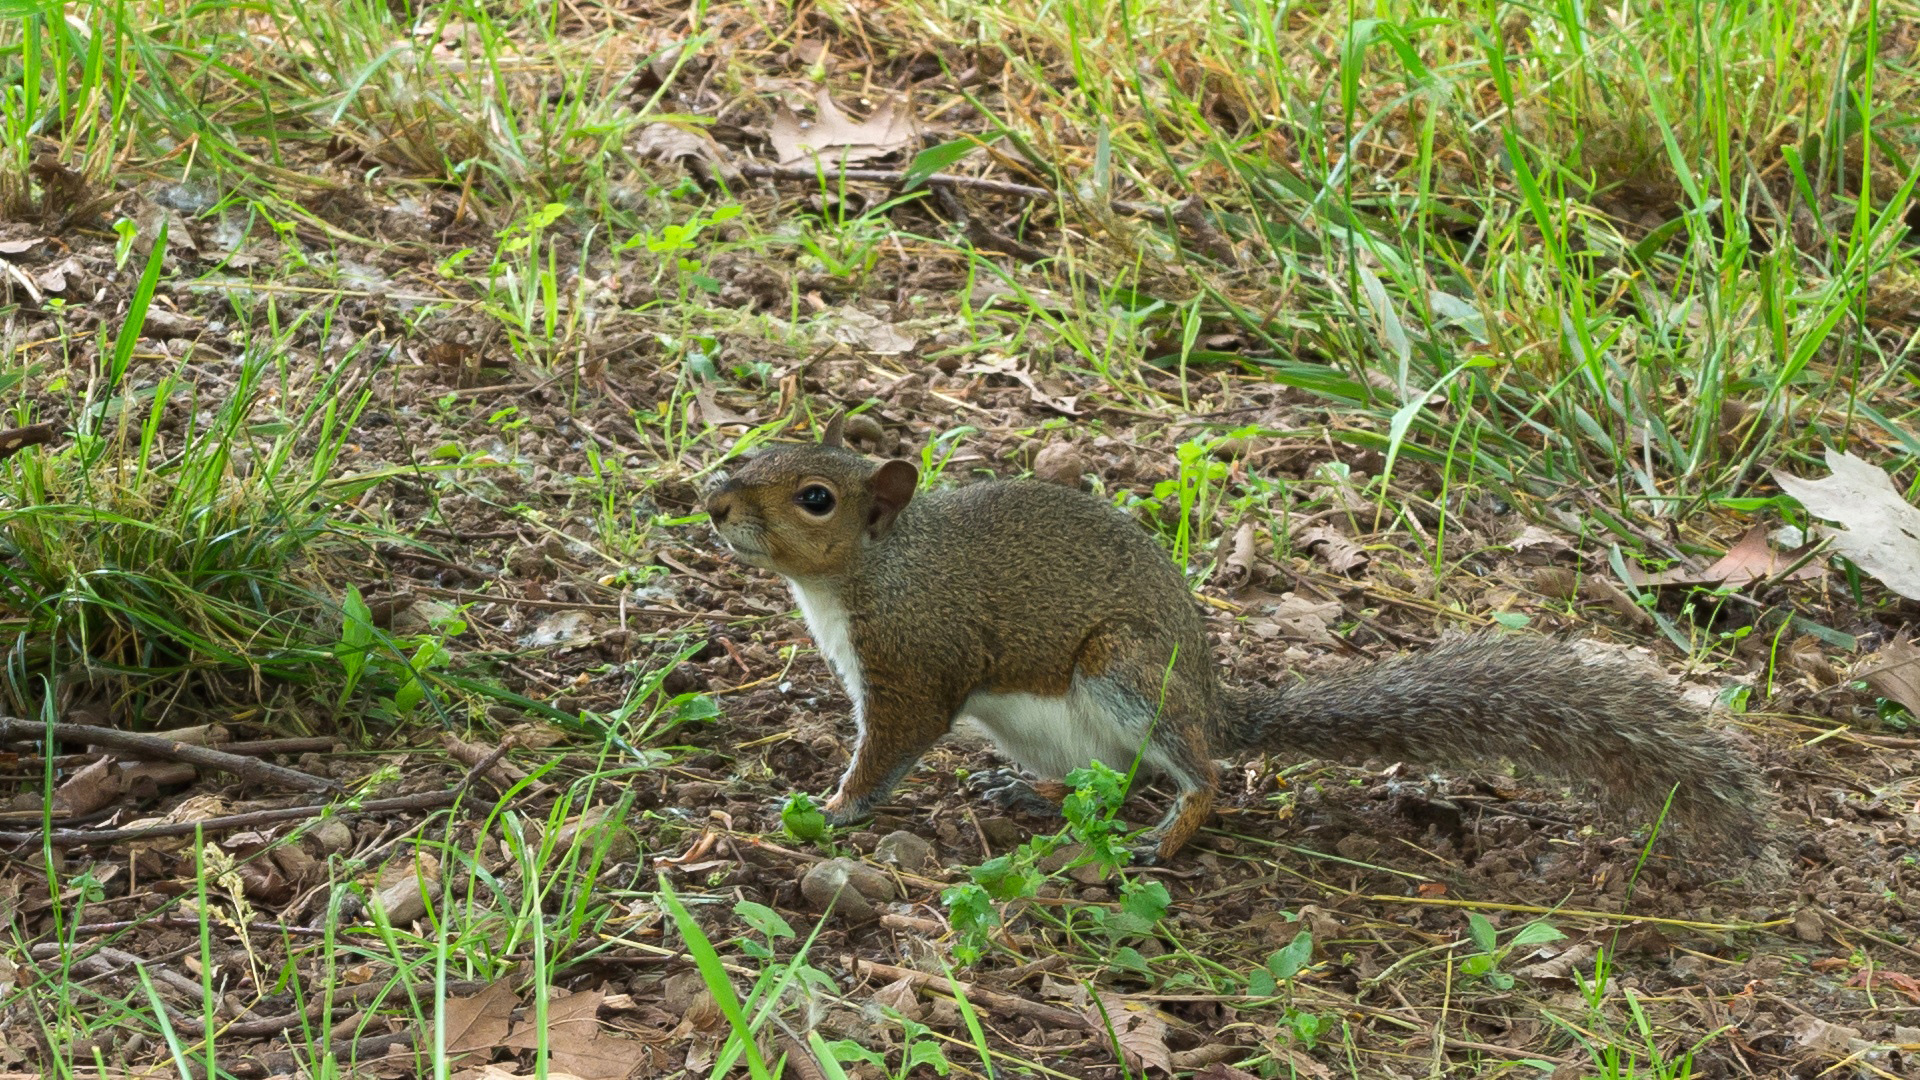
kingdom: Animalia
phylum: Chordata
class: Mammalia
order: Rodentia
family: Sciuridae
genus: Sciurus
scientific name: Sciurus carolinensis
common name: Eastern gray squirrel
